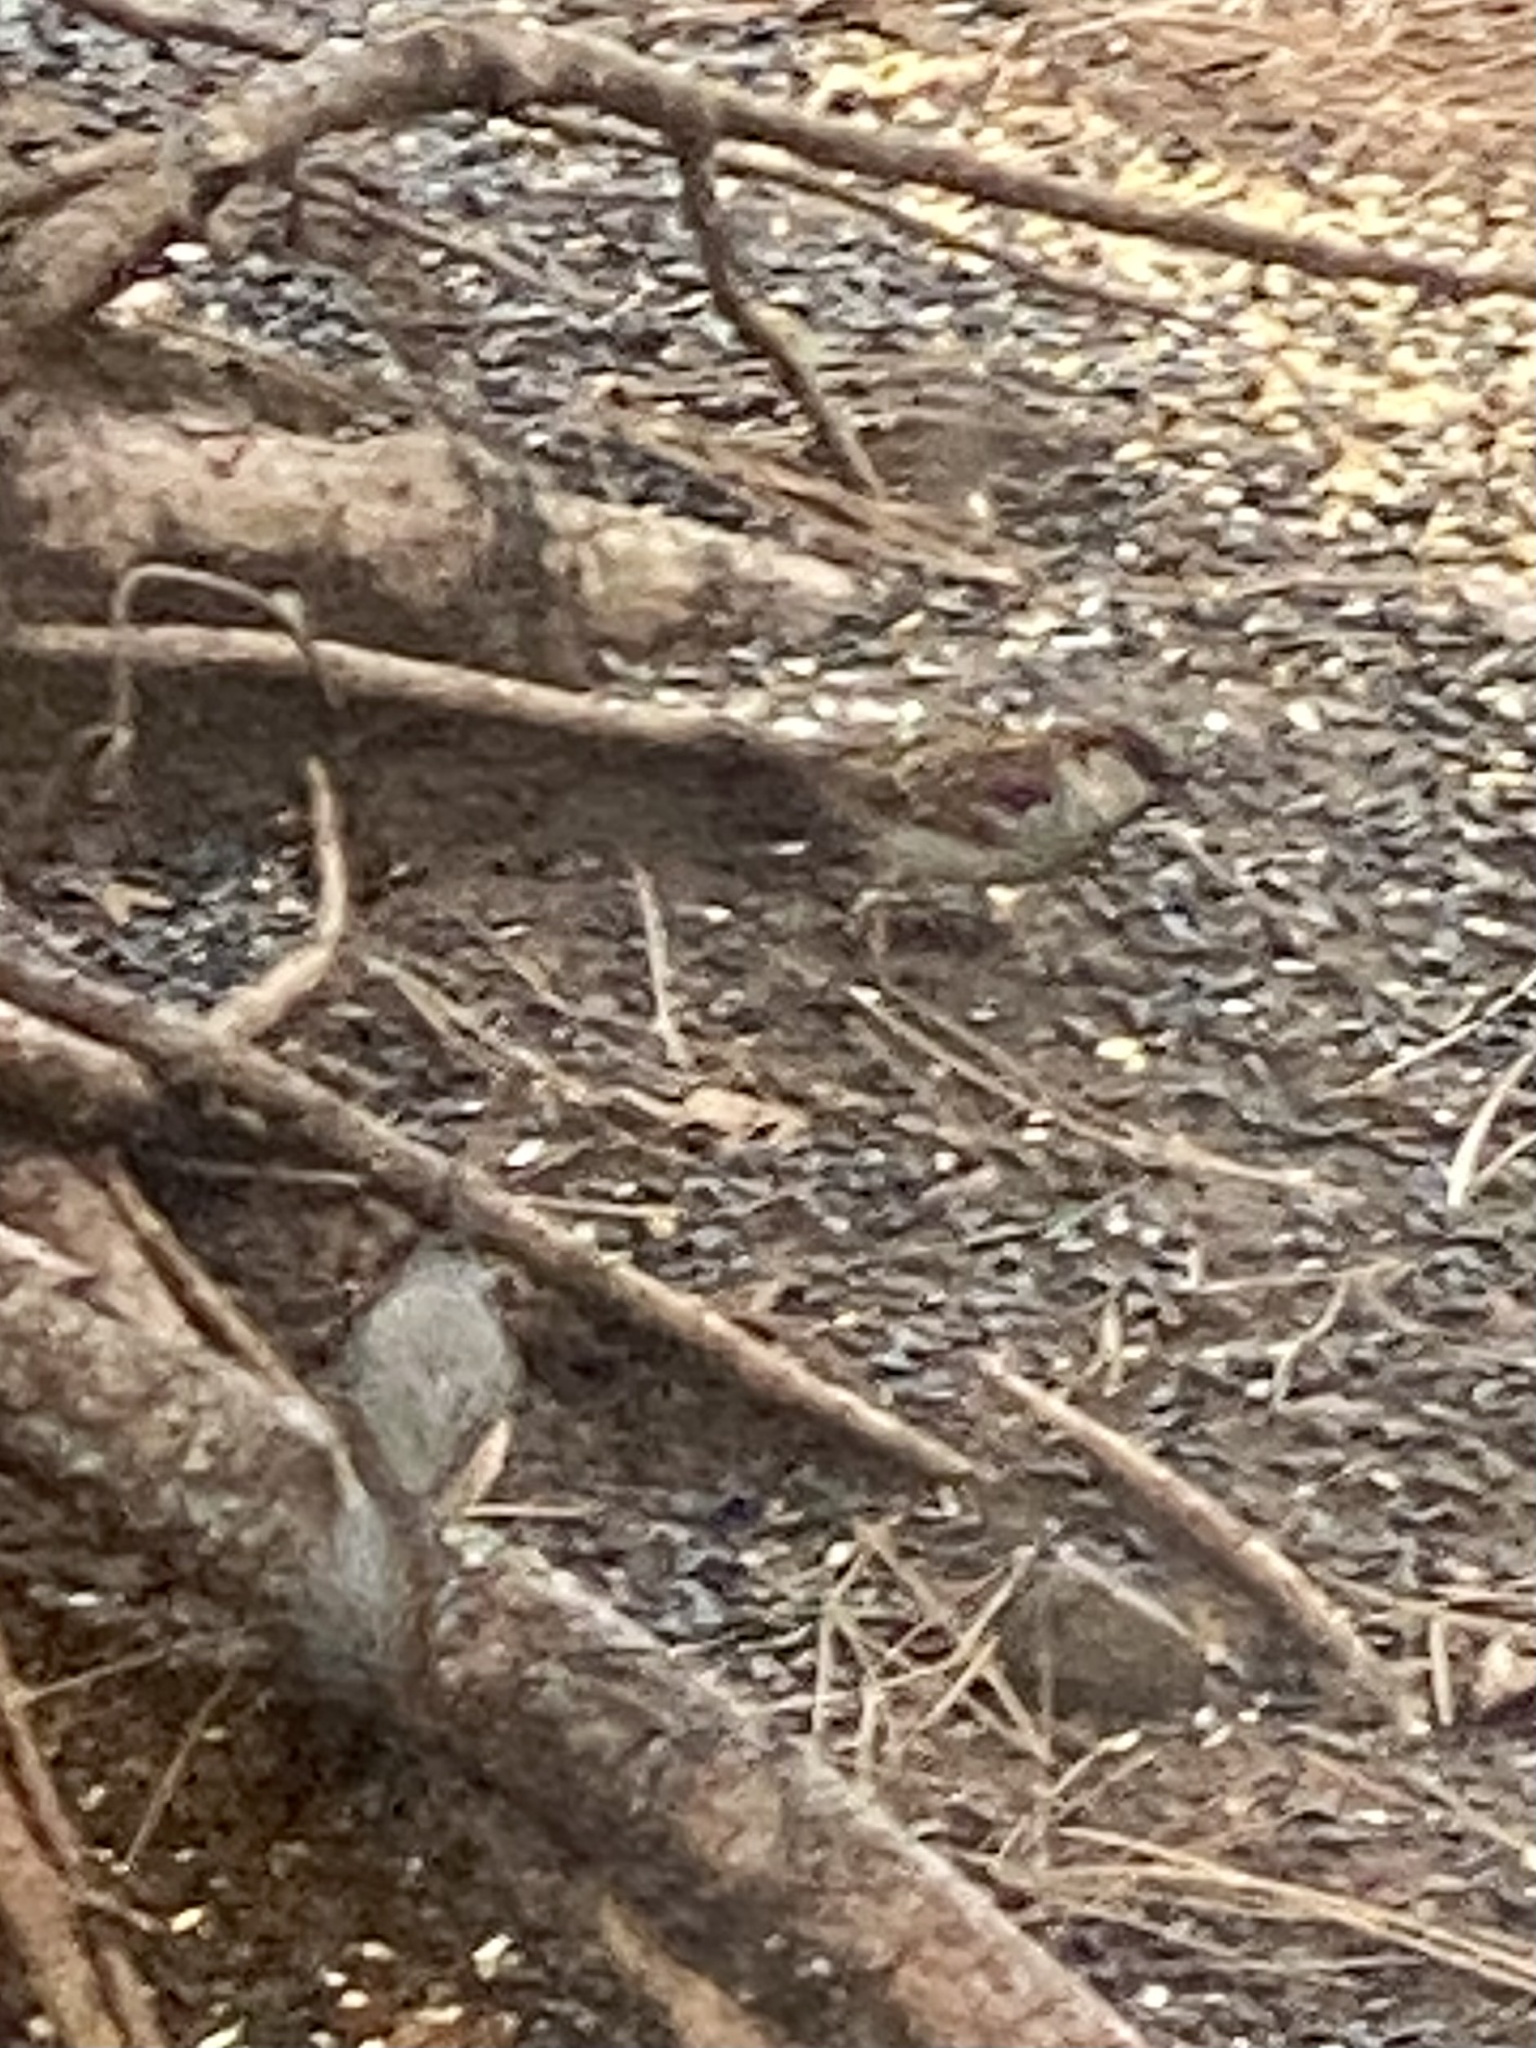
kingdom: Animalia
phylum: Chordata
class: Aves
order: Passeriformes
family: Paridae
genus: Baeolophus
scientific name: Baeolophus bicolor
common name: Tufted titmouse
